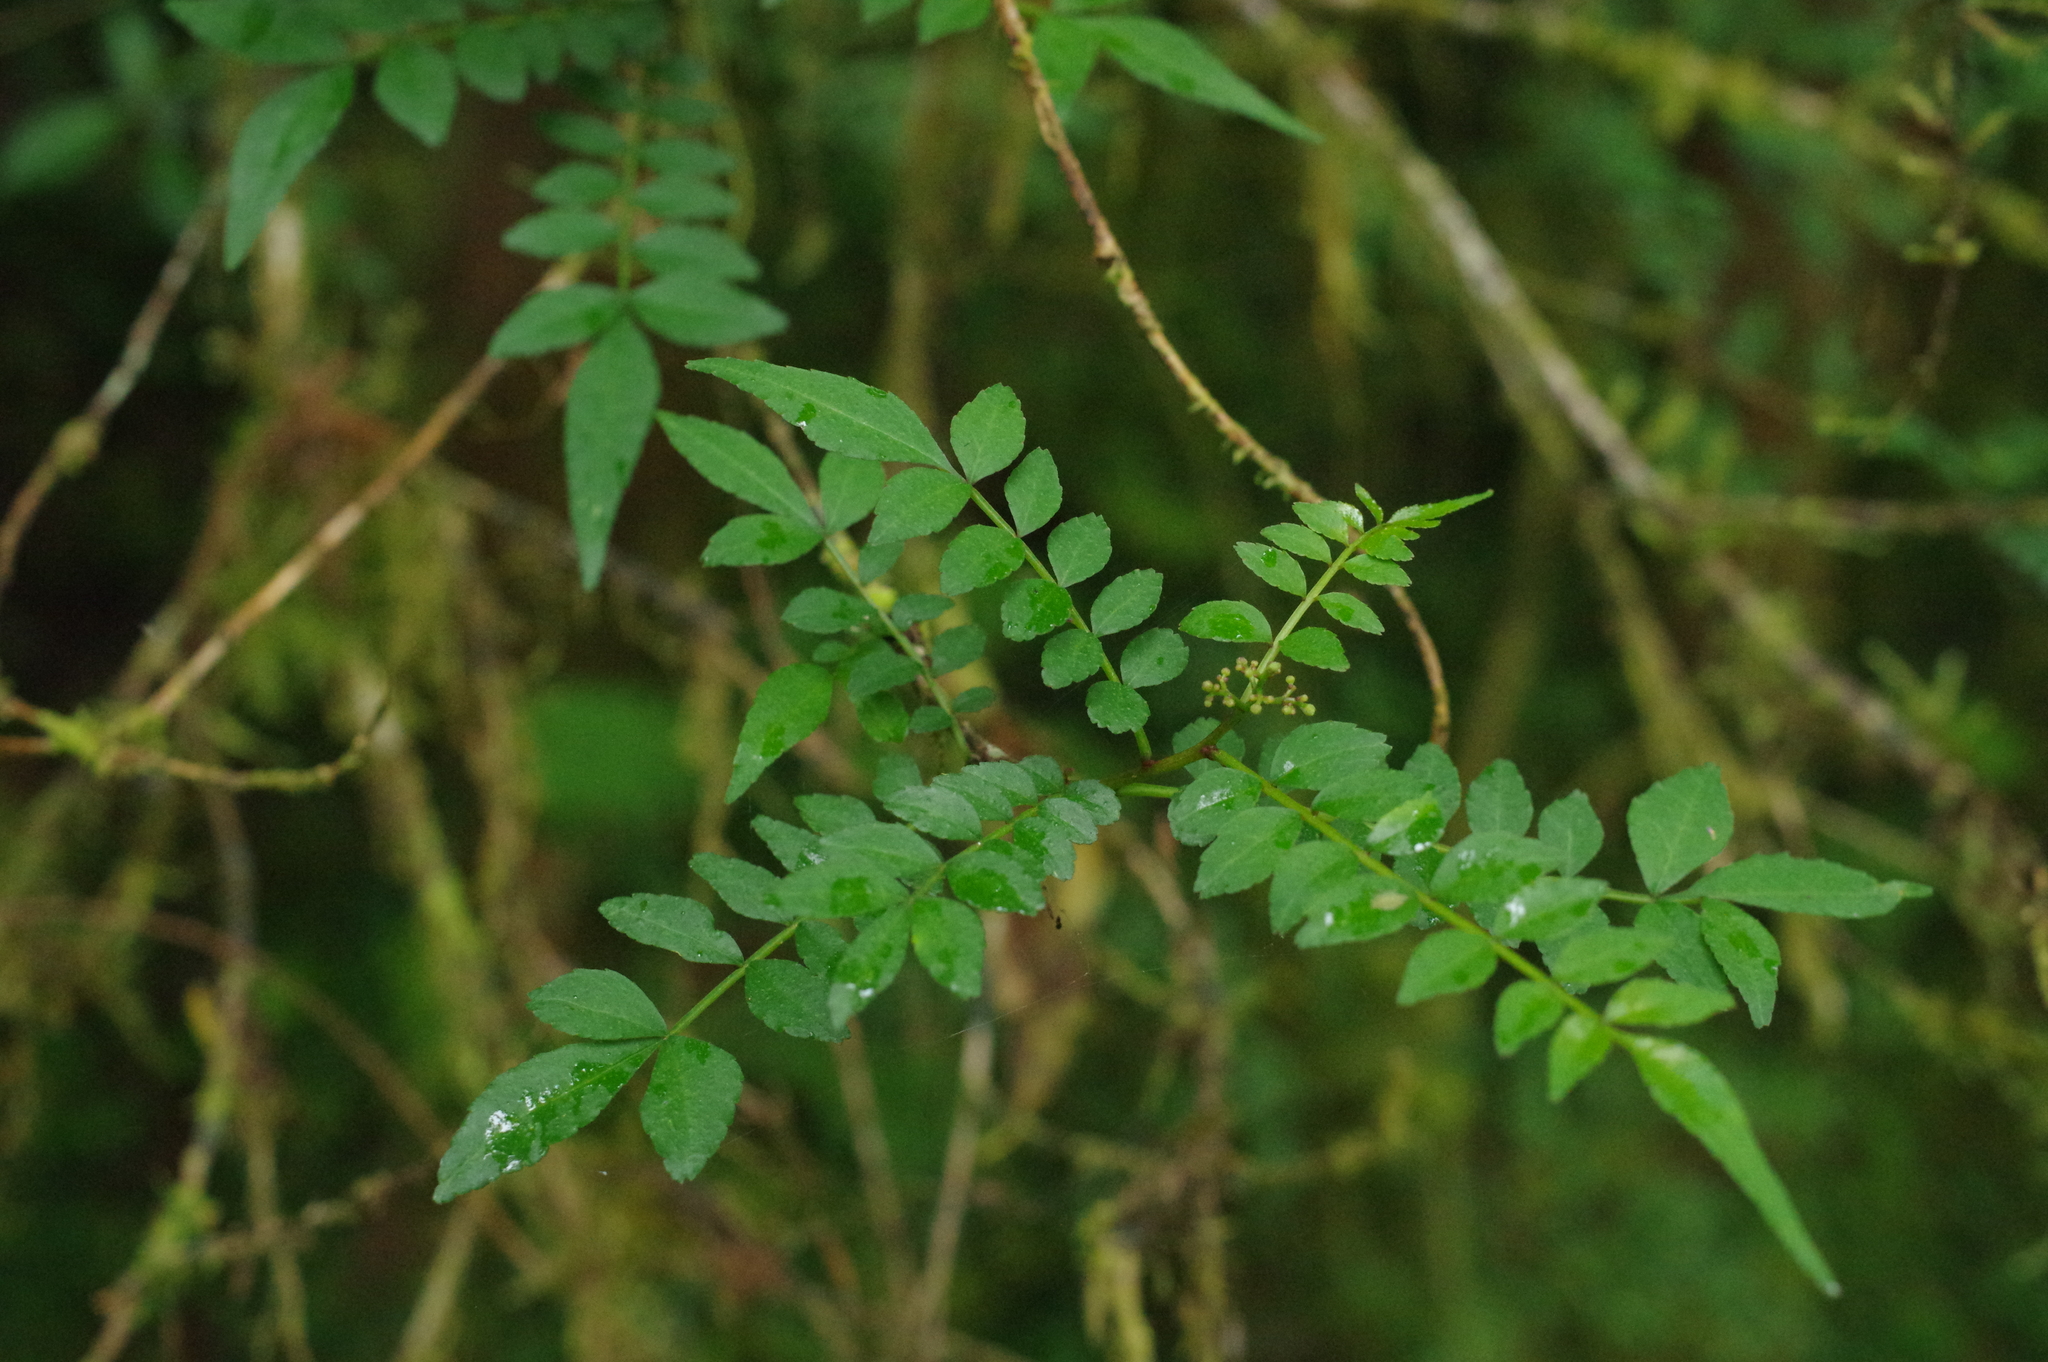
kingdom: Plantae
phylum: Tracheophyta
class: Magnoliopsida
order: Sapindales
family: Rutaceae
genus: Zanthoxylum
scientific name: Zanthoxylum schinifolium
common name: Sichuan-pepper
